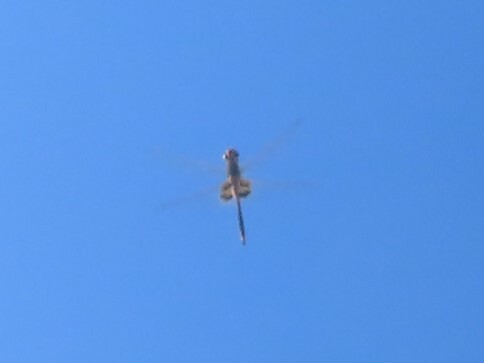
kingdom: Animalia
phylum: Arthropoda
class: Insecta
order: Odonata
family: Libellulidae
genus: Tramea
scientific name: Tramea basilaris
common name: Keyhole glider
